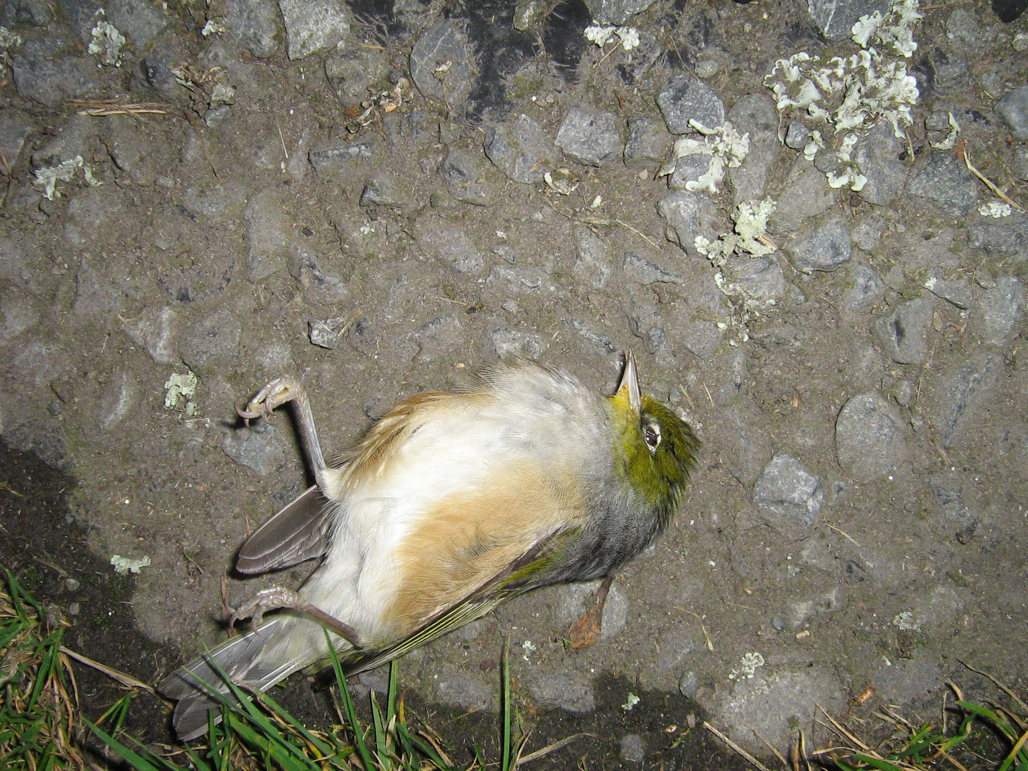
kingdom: Animalia
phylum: Chordata
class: Aves
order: Passeriformes
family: Zosteropidae
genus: Zosterops
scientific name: Zosterops lateralis
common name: Silvereye
